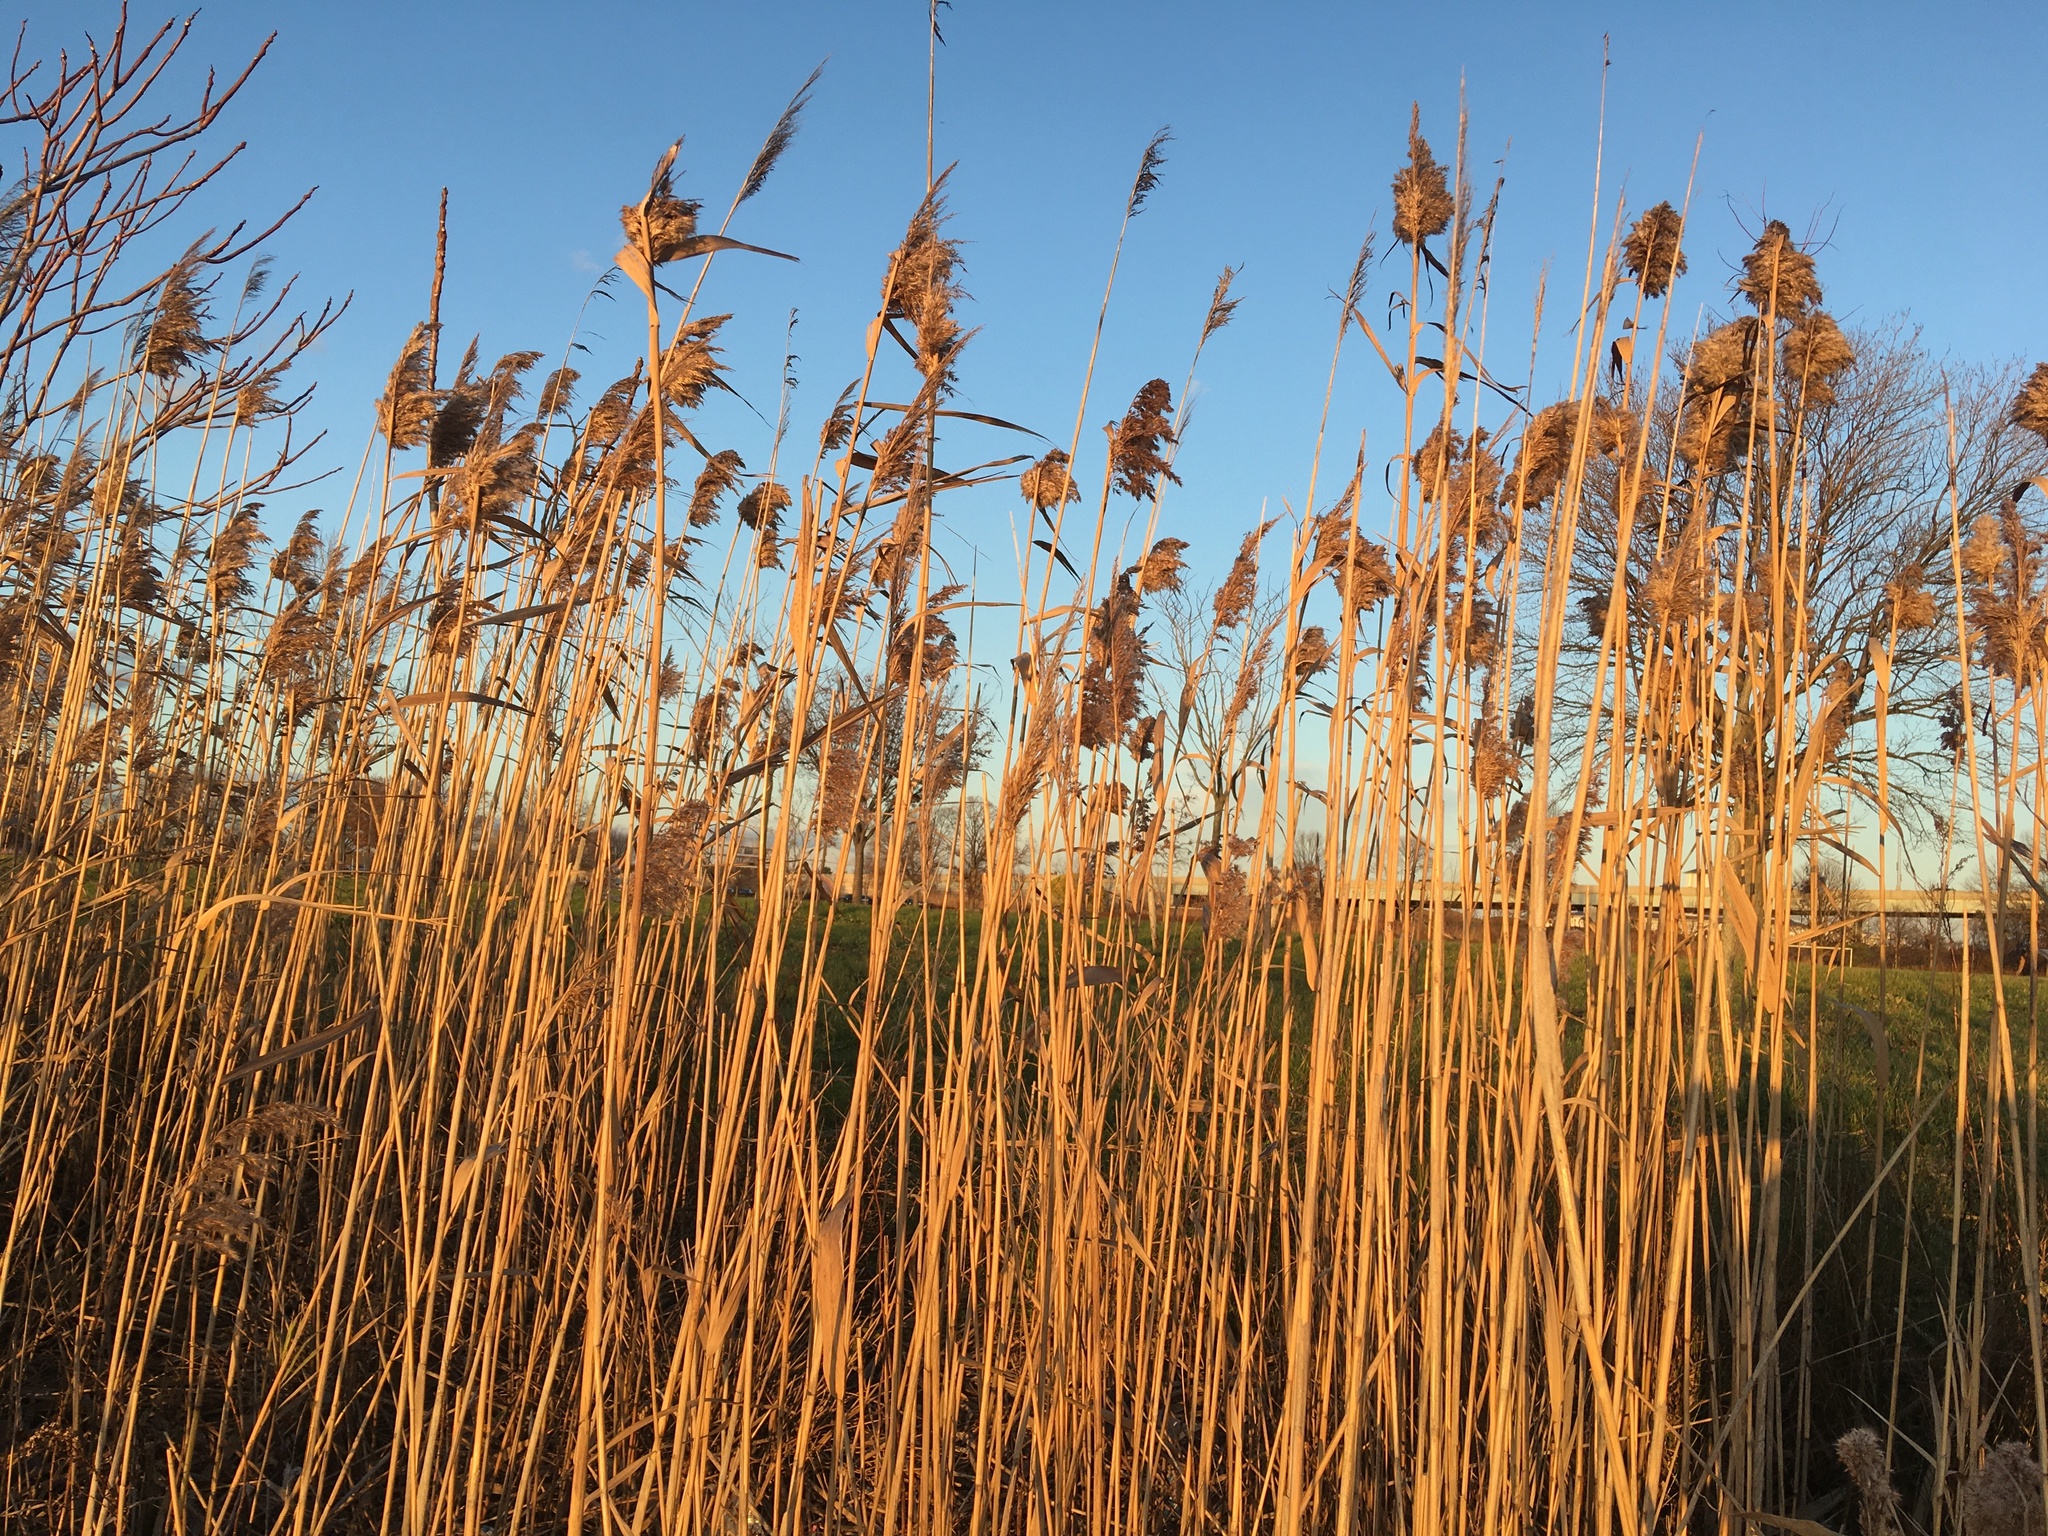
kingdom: Plantae
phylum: Tracheophyta
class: Liliopsida
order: Poales
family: Poaceae
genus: Phragmites
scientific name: Phragmites australis
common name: Common reed
